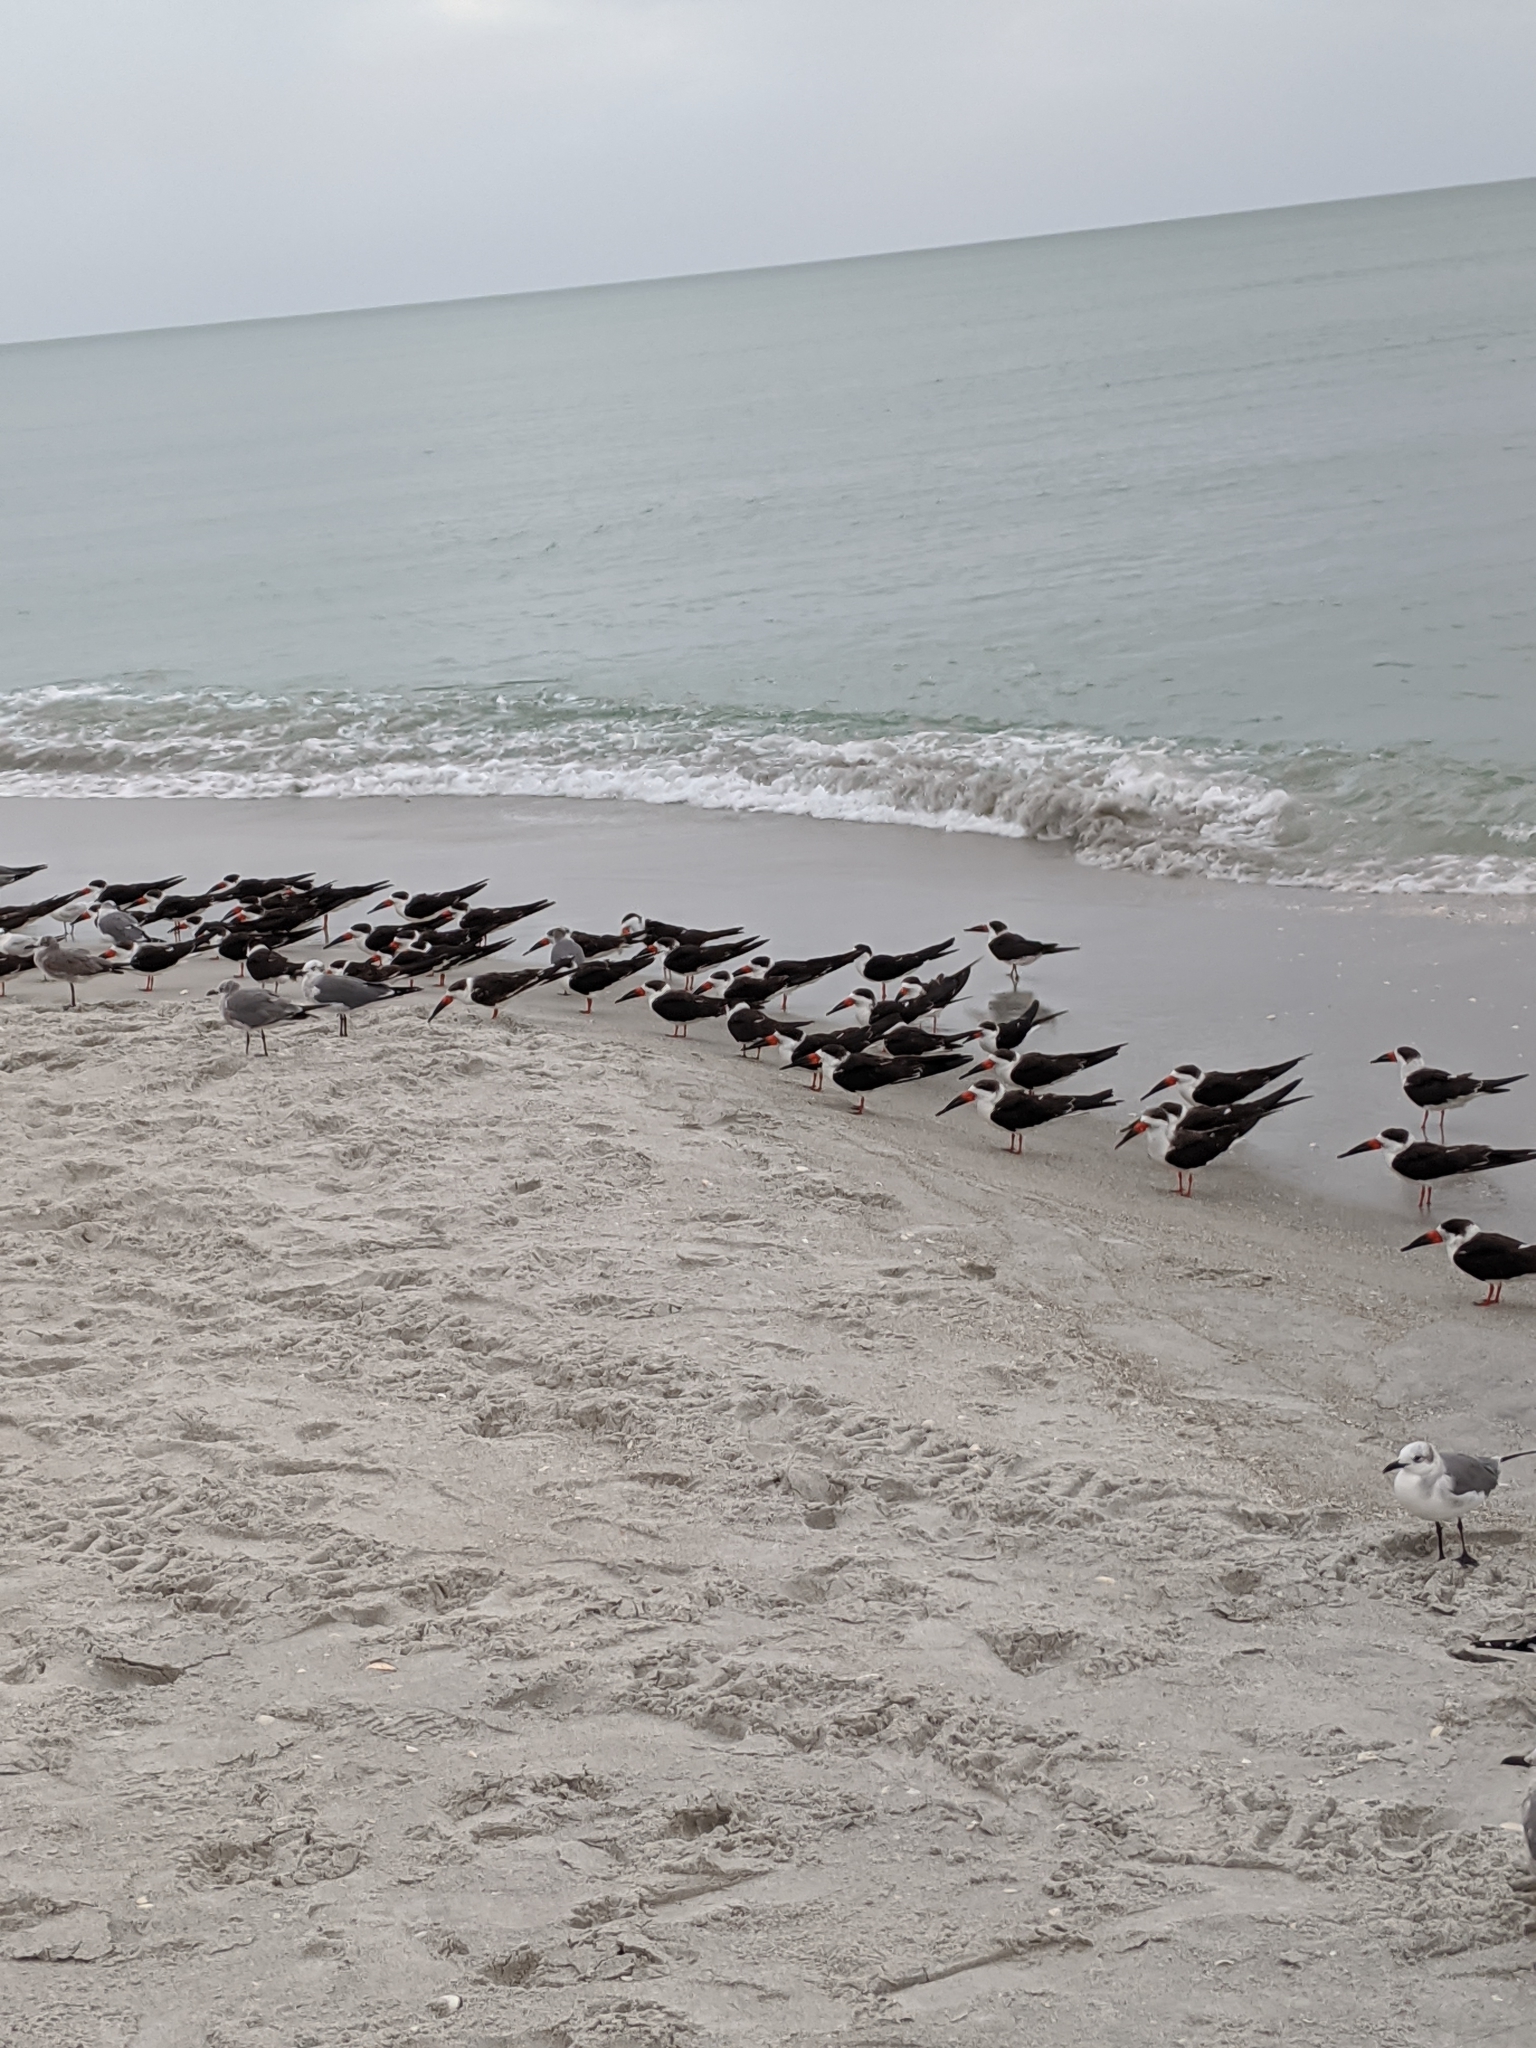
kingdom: Animalia
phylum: Chordata
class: Aves
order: Charadriiformes
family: Laridae
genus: Rynchops
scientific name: Rynchops niger
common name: Black skimmer
